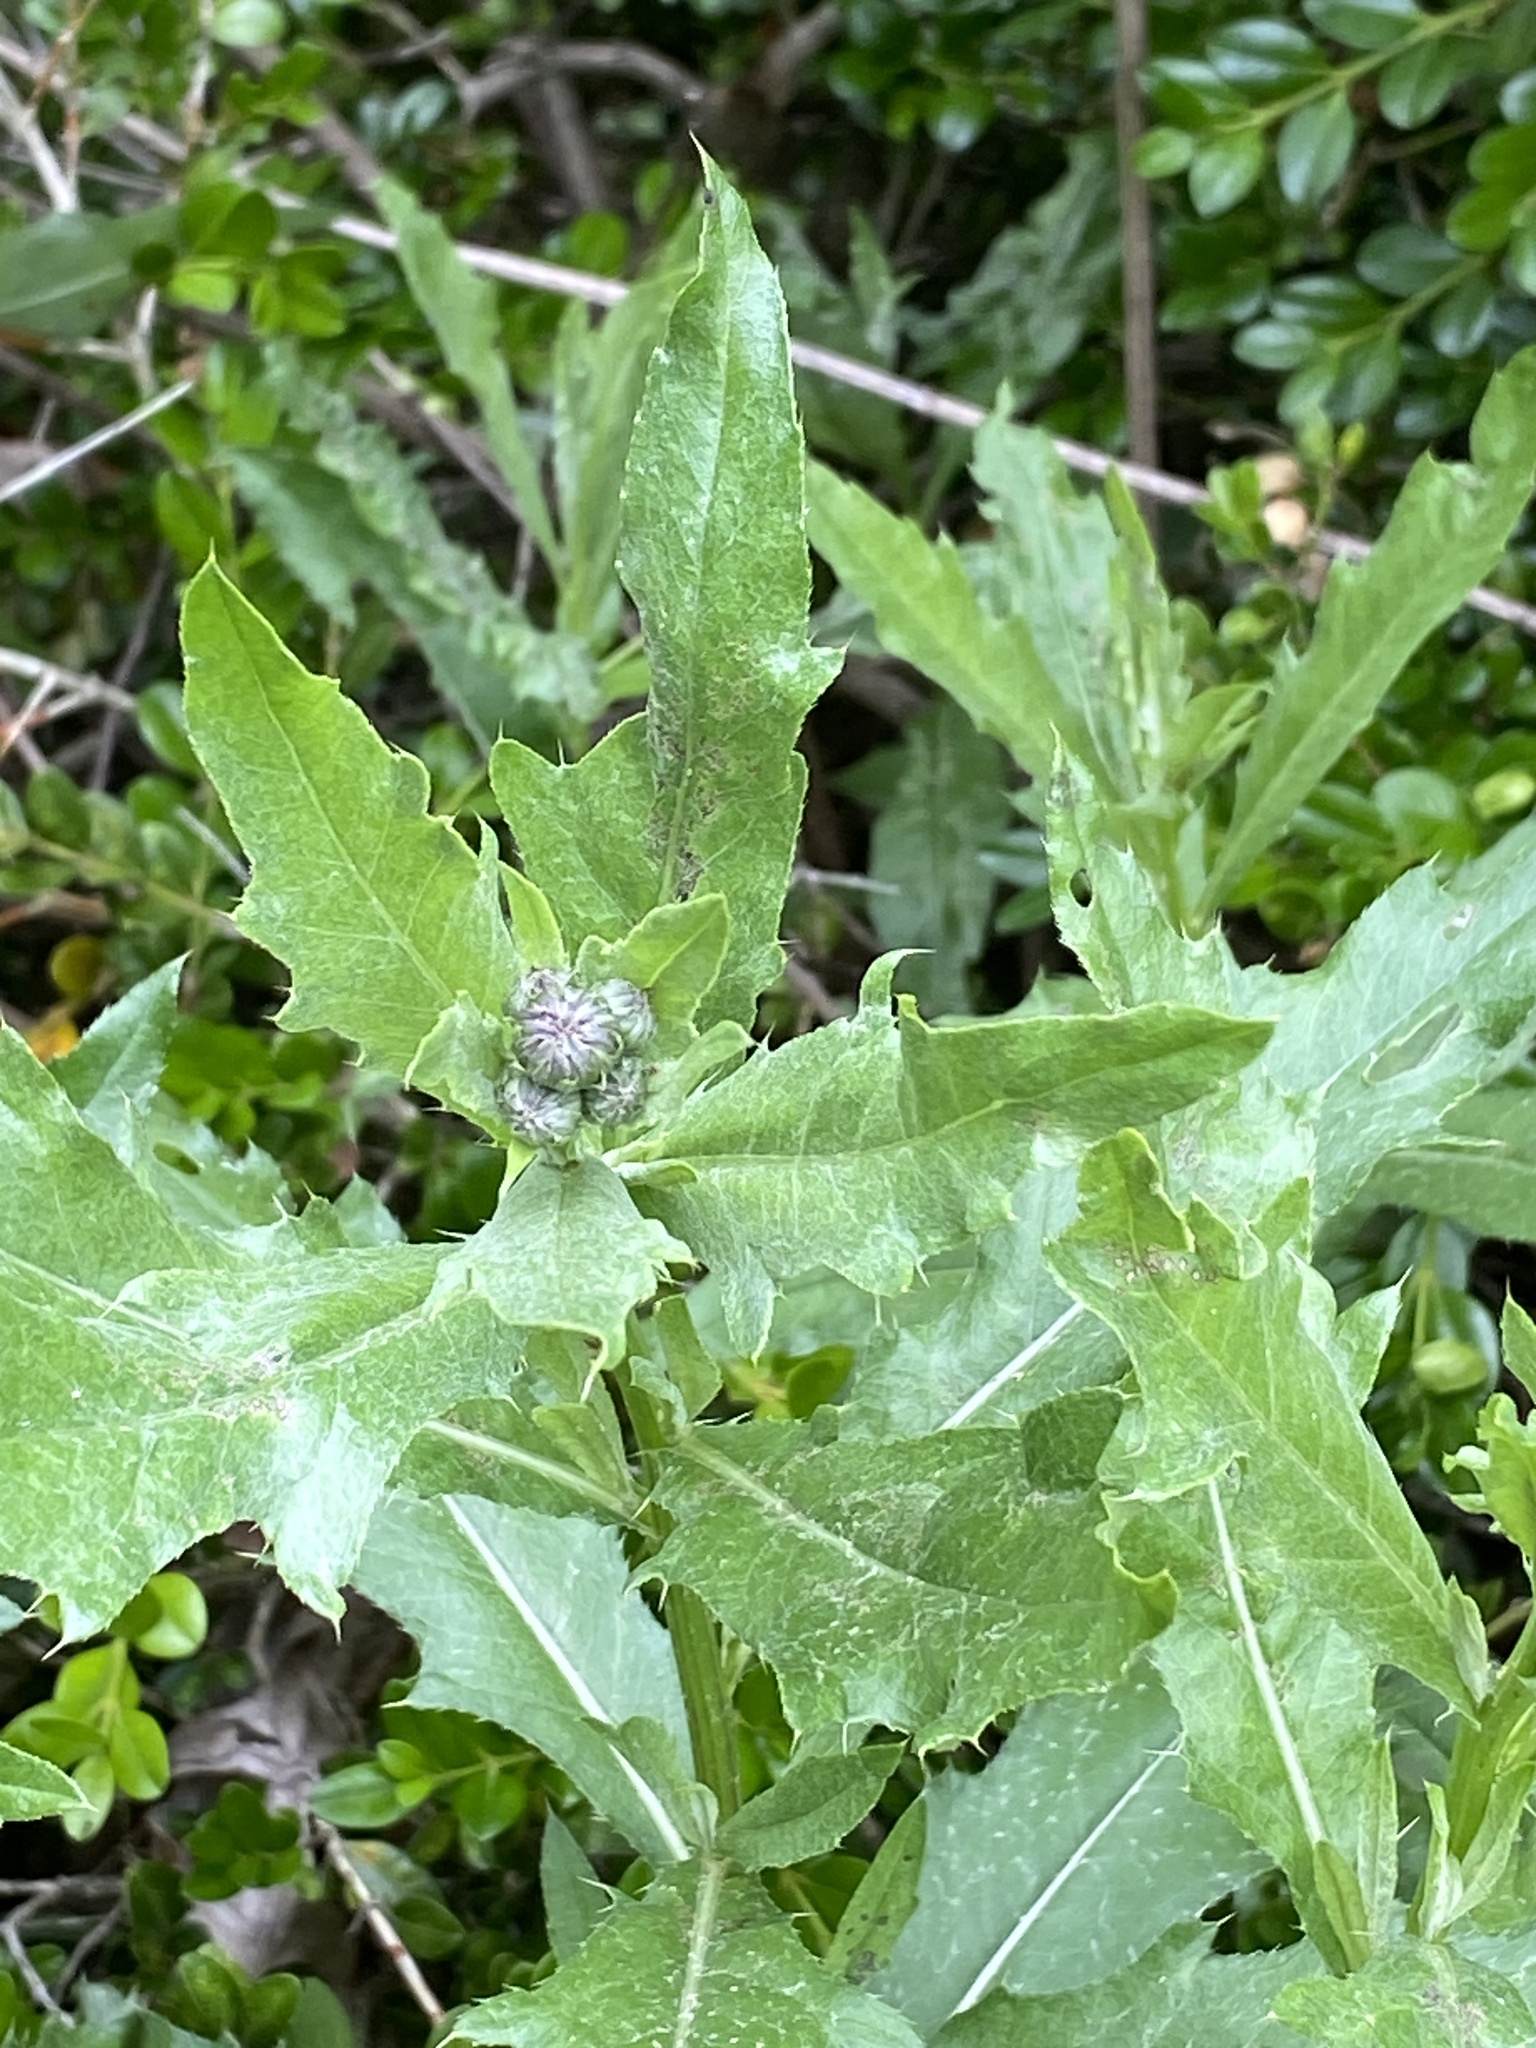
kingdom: Plantae
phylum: Tracheophyta
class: Magnoliopsida
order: Asterales
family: Asteraceae
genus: Cirsium
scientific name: Cirsium arvense
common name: Creeping thistle
